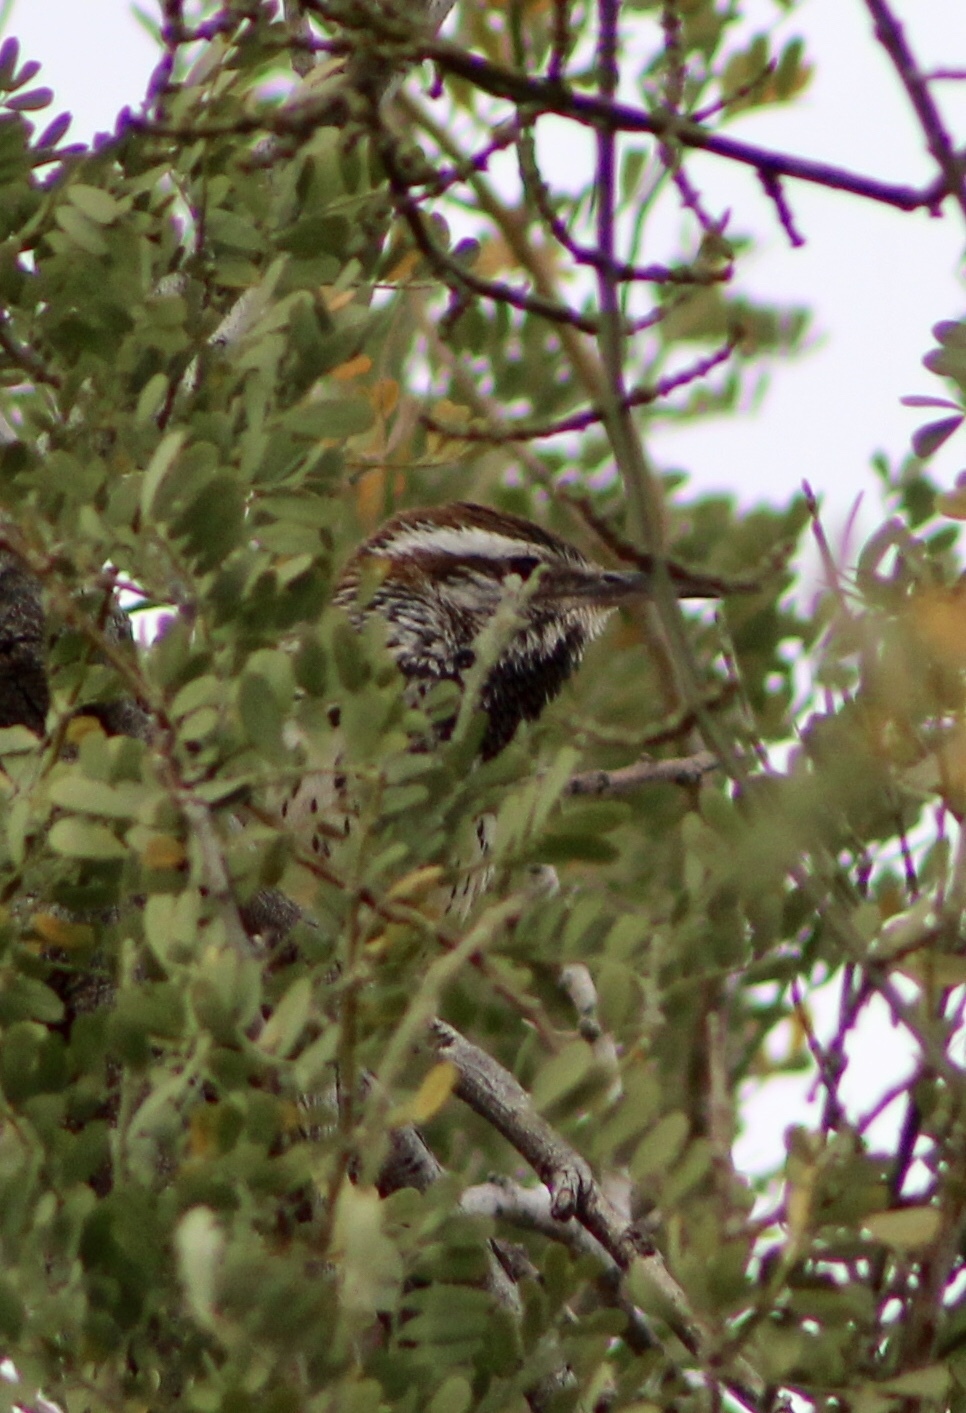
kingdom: Animalia
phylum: Chordata
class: Aves
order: Passeriformes
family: Troglodytidae
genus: Campylorhynchus
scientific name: Campylorhynchus brunneicapillus
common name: Cactus wren
